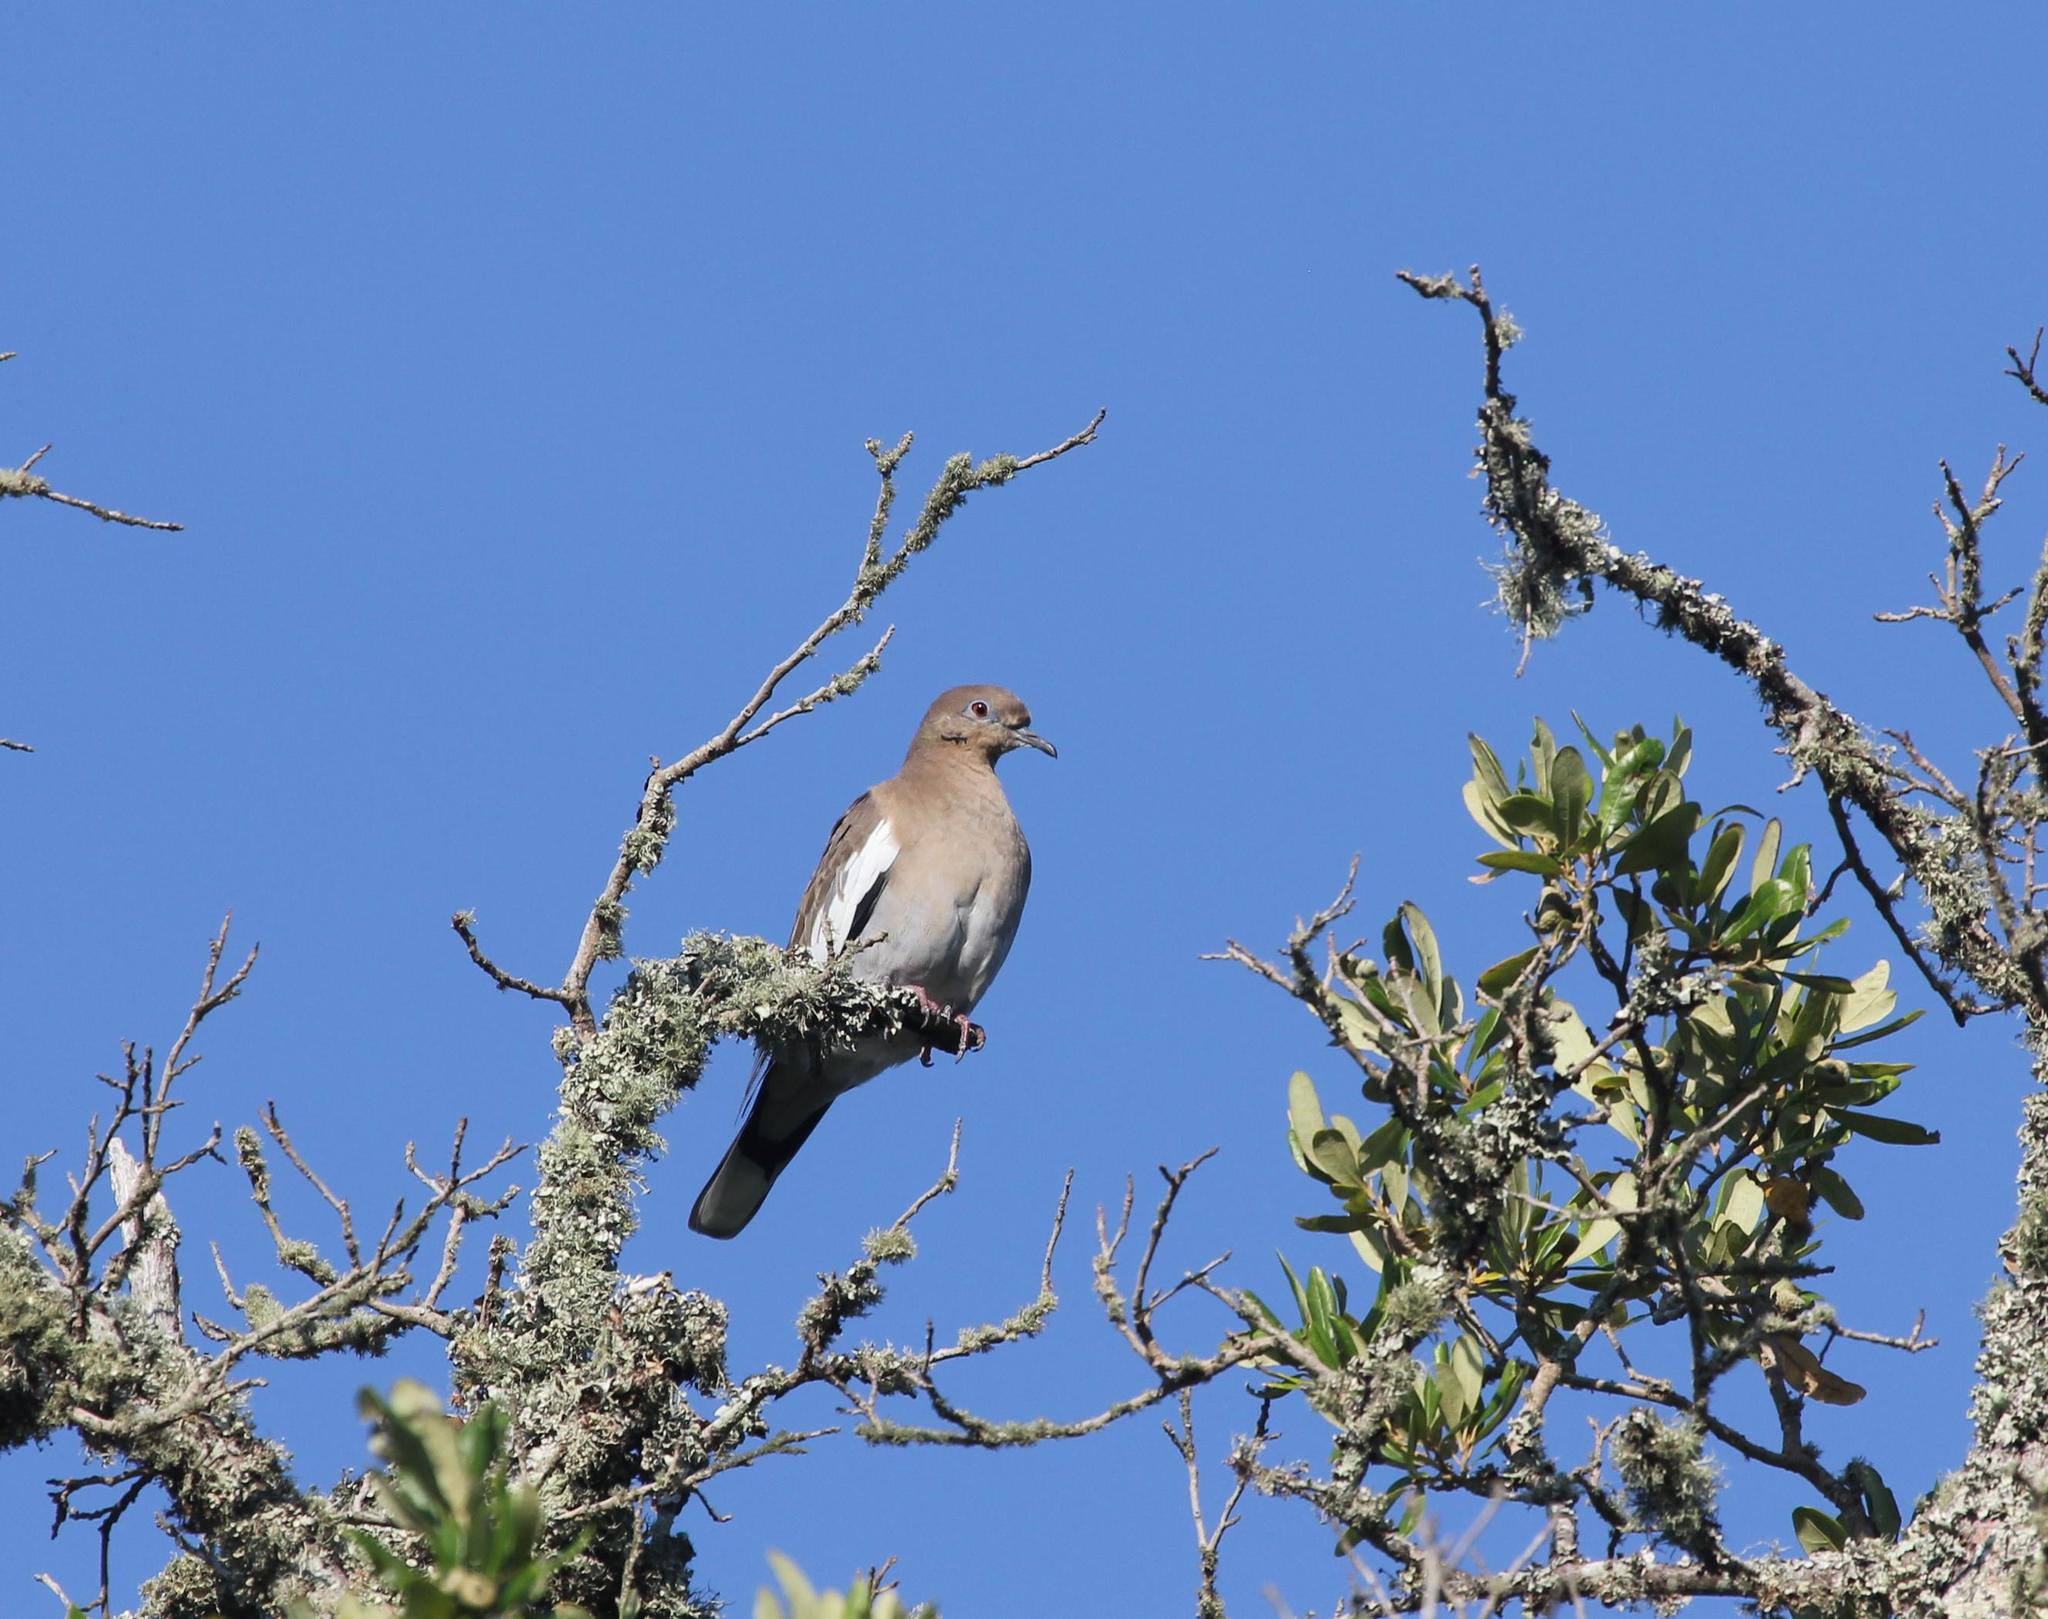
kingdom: Animalia
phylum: Chordata
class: Aves
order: Columbiformes
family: Columbidae
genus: Zenaida
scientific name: Zenaida asiatica
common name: White-winged dove
